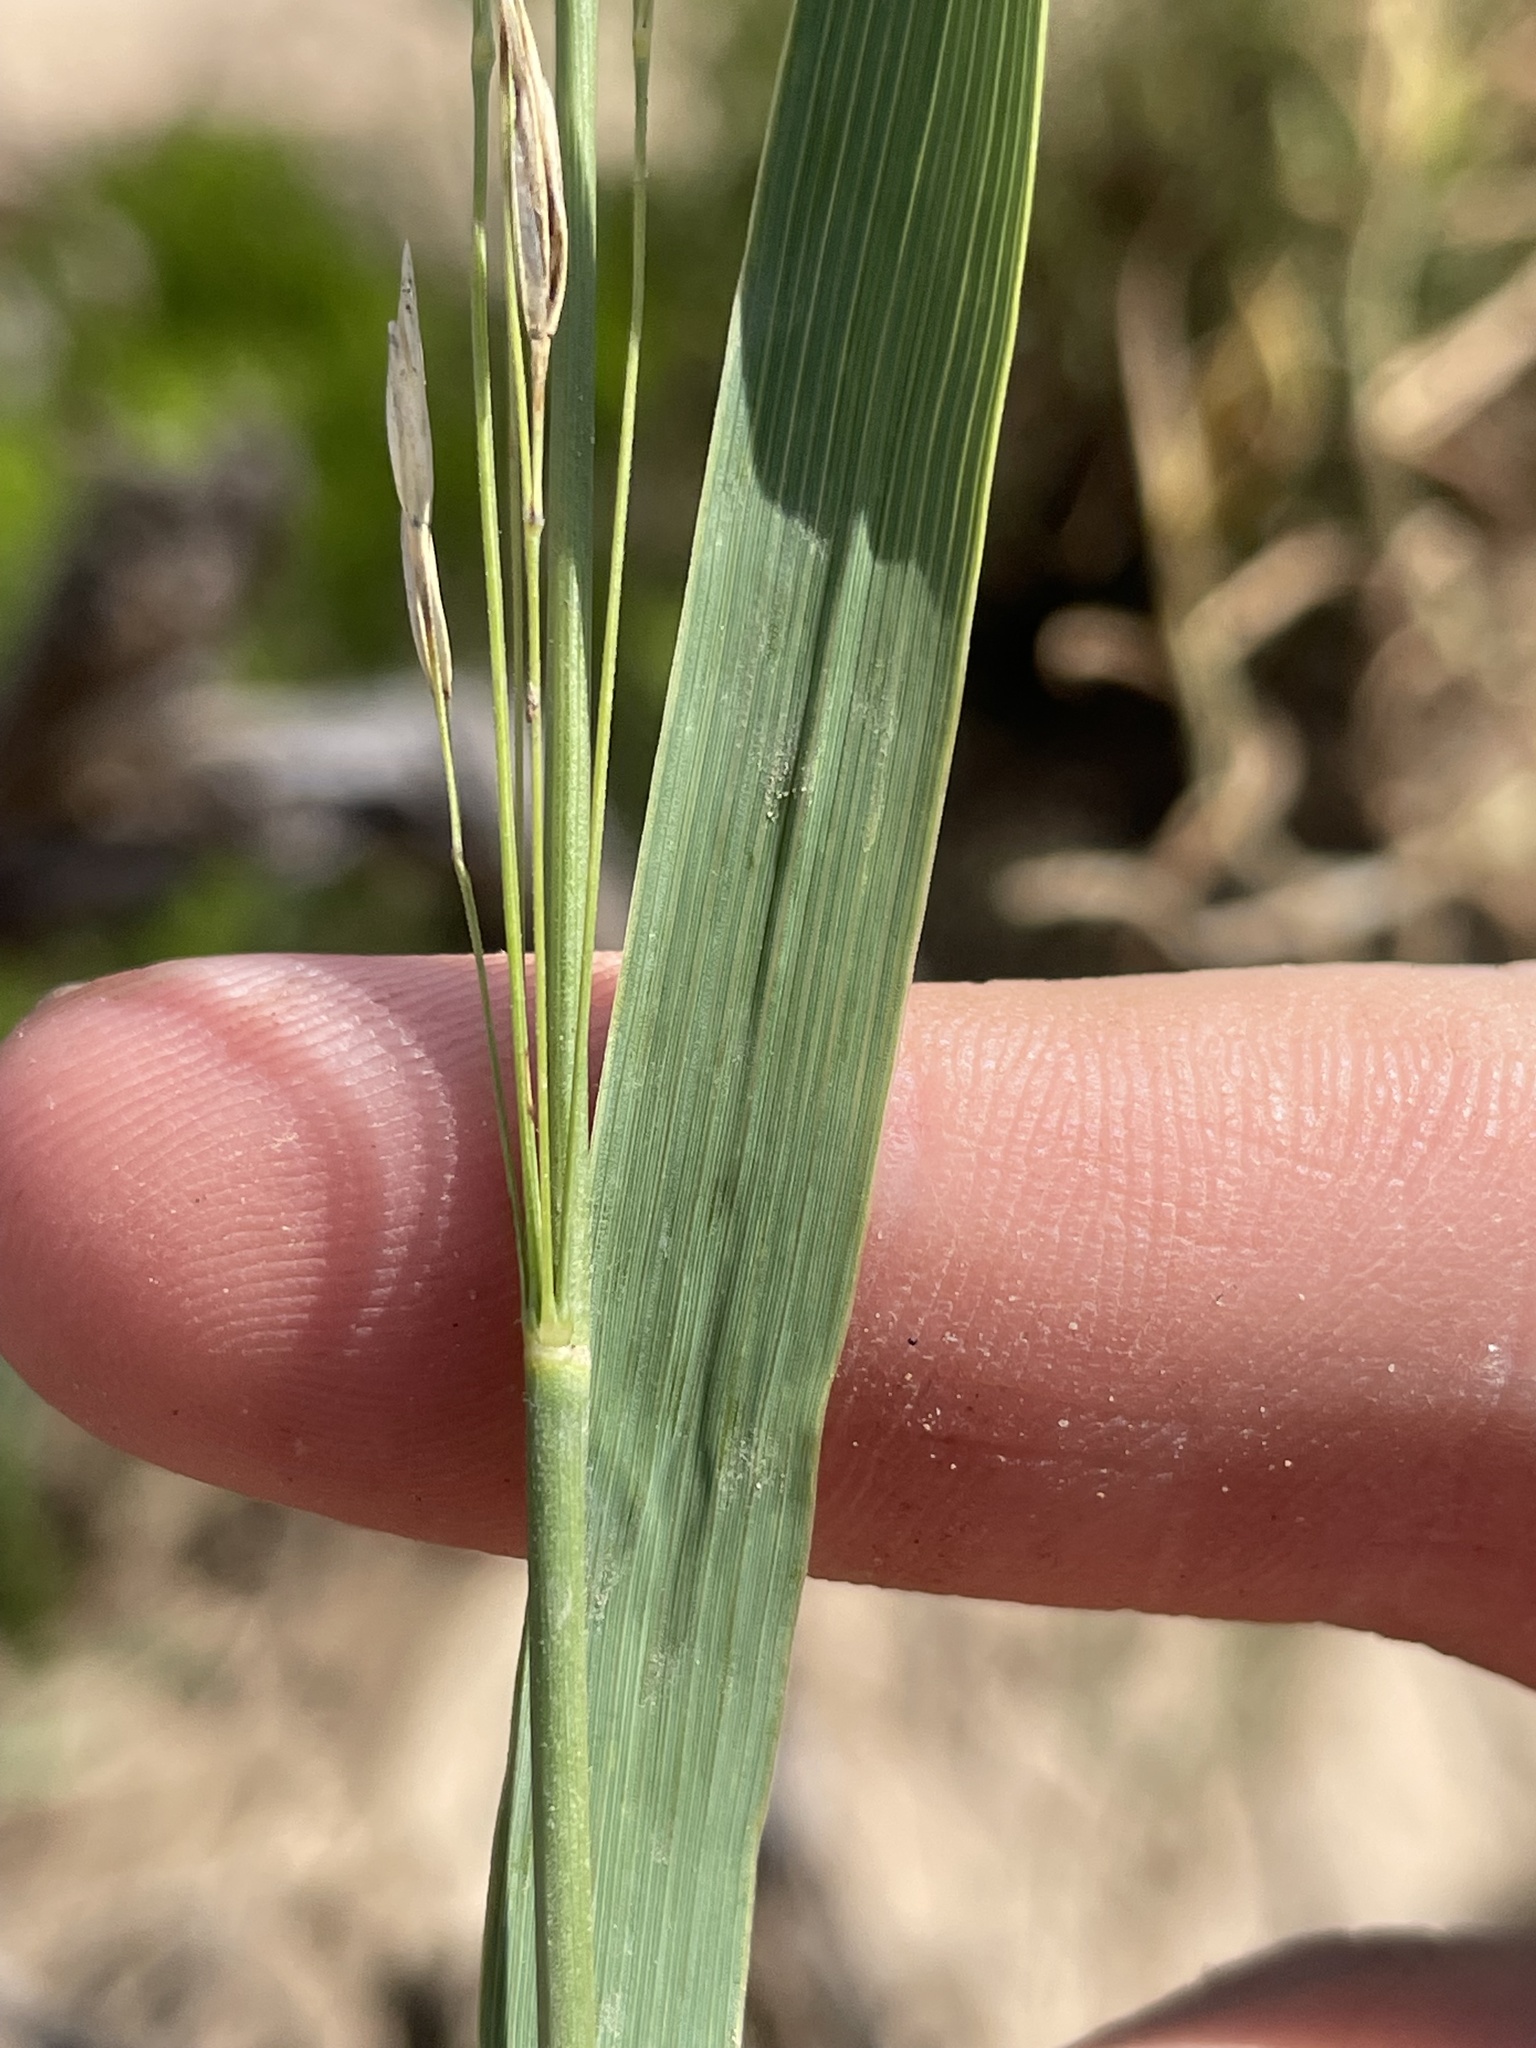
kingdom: Plantae
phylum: Tracheophyta
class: Liliopsida
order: Poales
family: Poaceae
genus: Bromus
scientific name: Bromus inermis
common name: Smooth brome
